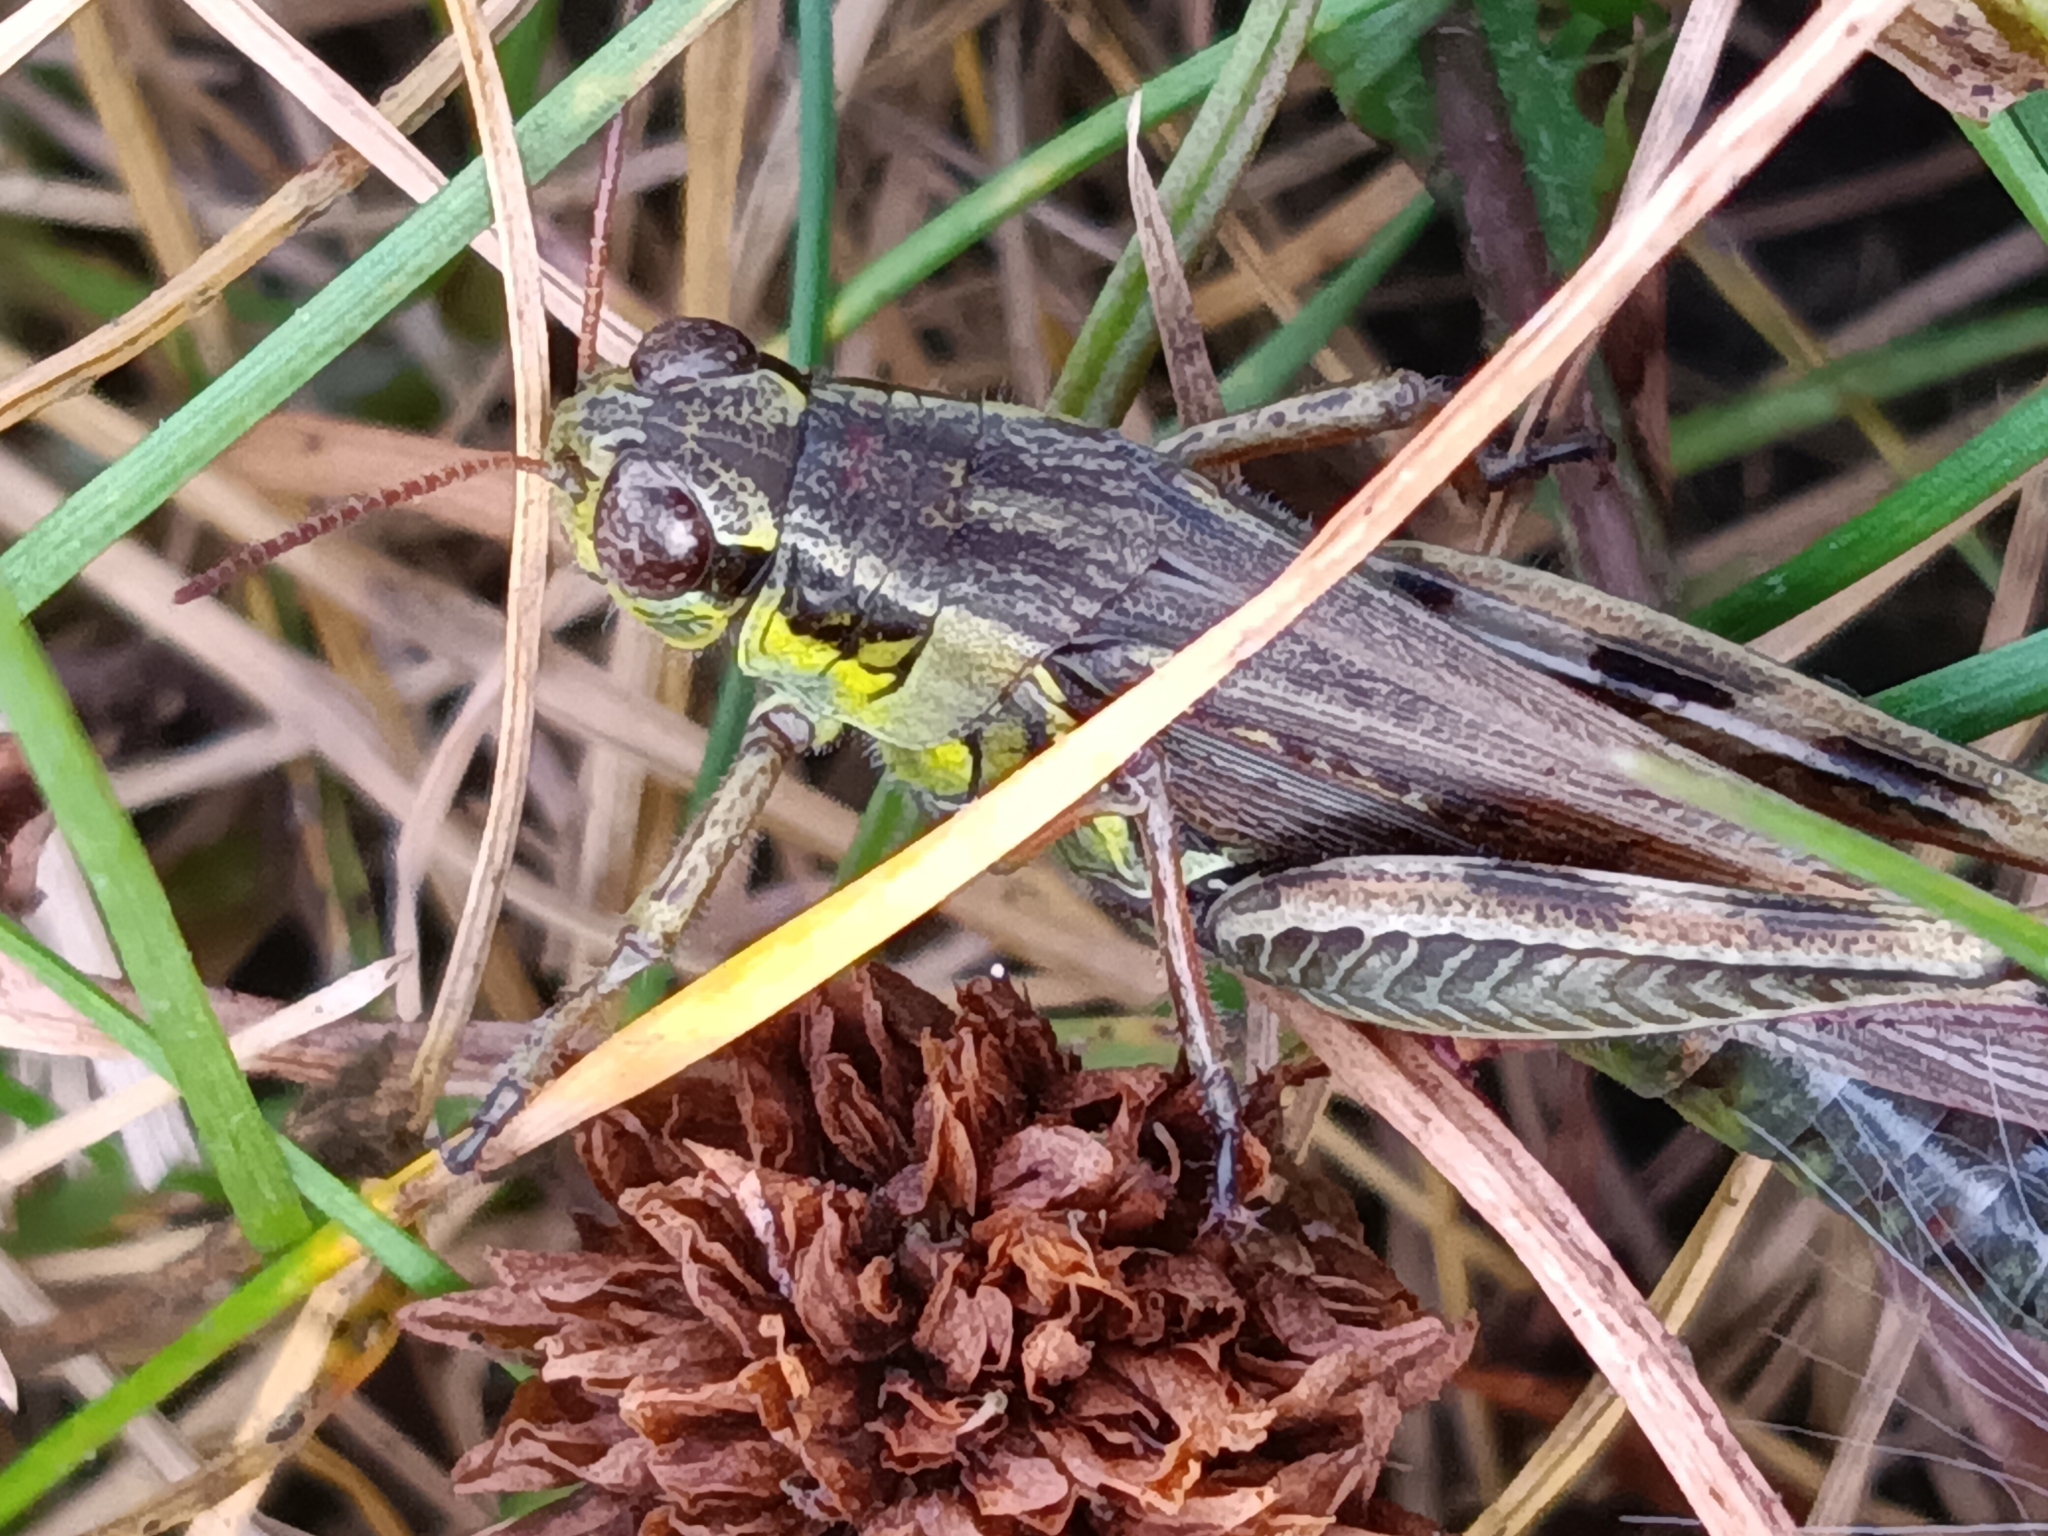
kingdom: Animalia
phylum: Arthropoda
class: Insecta
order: Orthoptera
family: Acrididae
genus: Melanoplus
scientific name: Melanoplus femurrubrum
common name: Red-legged grasshopper
